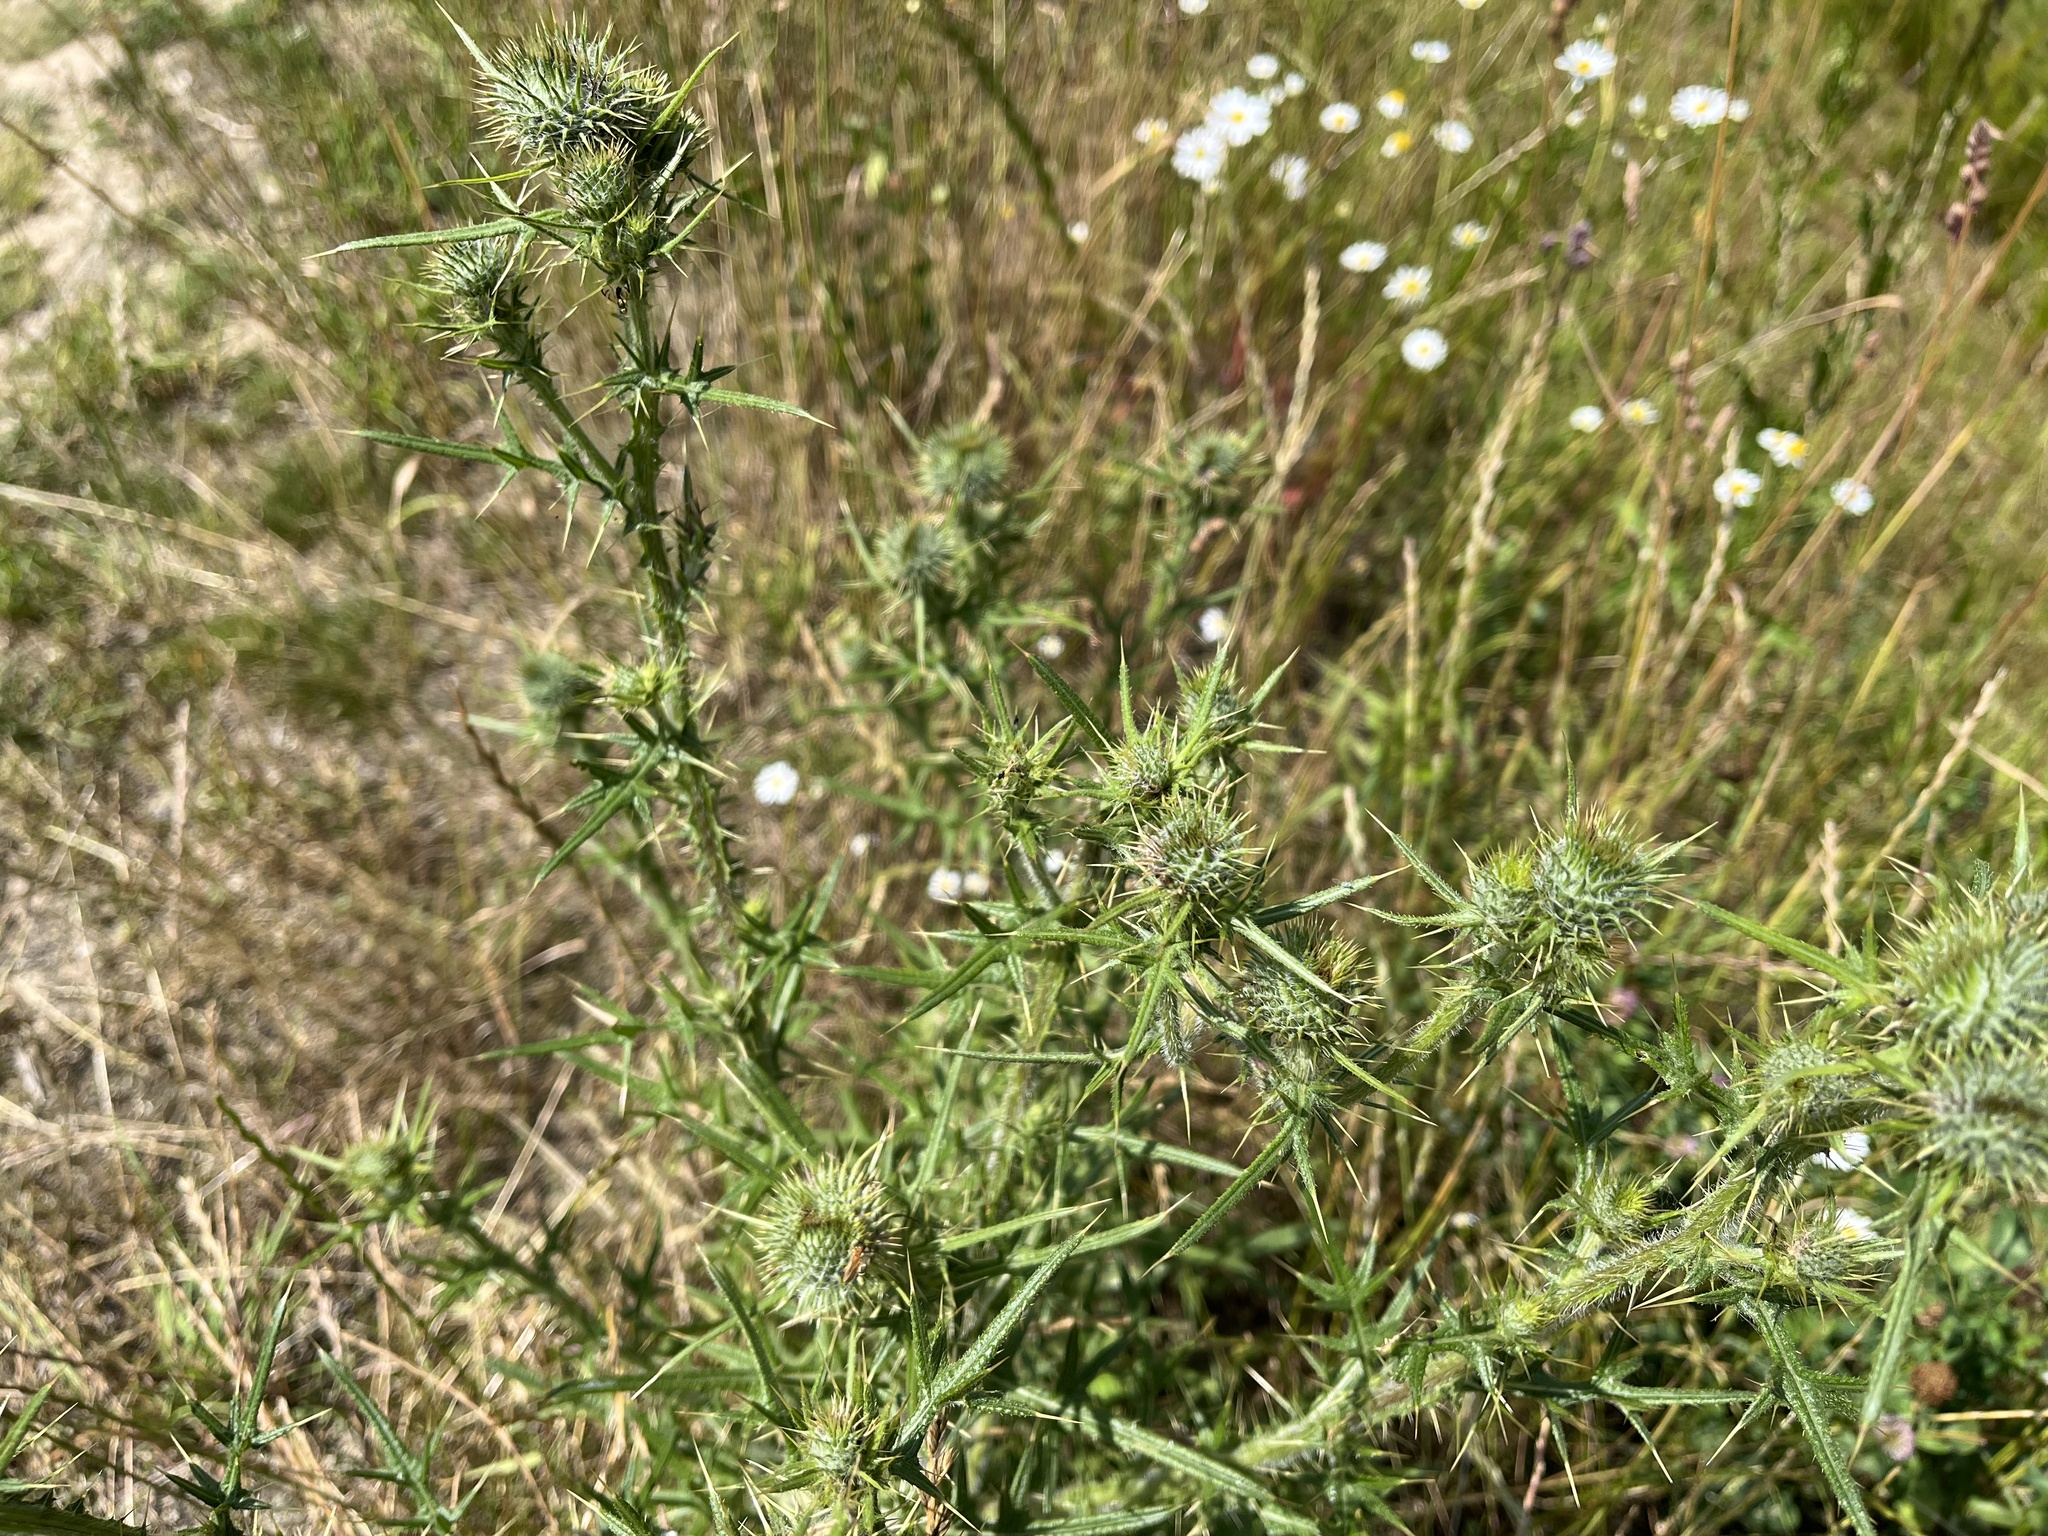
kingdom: Plantae
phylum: Tracheophyta
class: Magnoliopsida
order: Asterales
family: Asteraceae
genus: Carduus
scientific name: Carduus acanthoides
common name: Plumeless thistle
